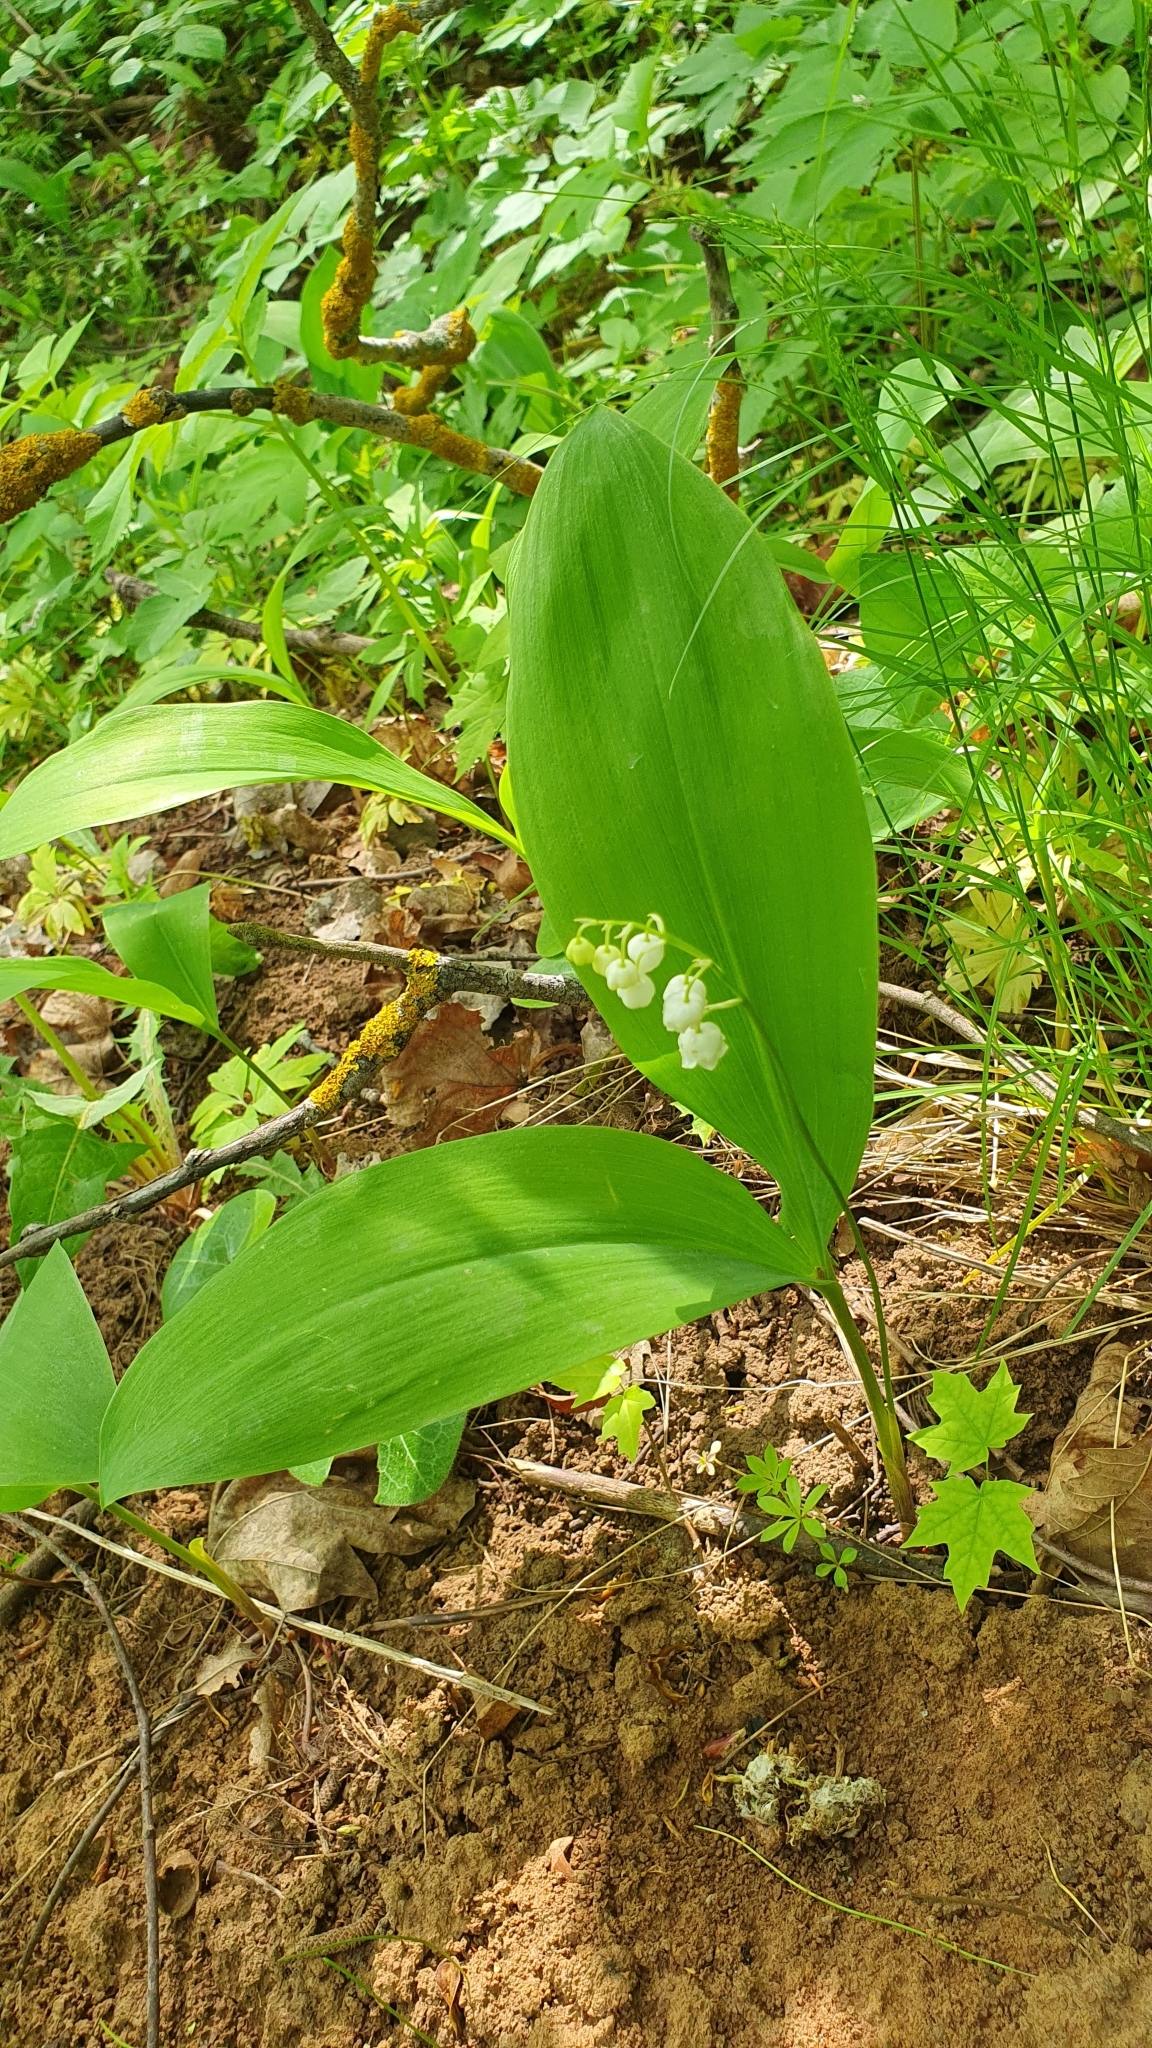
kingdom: Plantae
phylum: Tracheophyta
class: Liliopsida
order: Asparagales
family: Asparagaceae
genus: Convallaria
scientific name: Convallaria majalis
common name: Lily-of-the-valley
